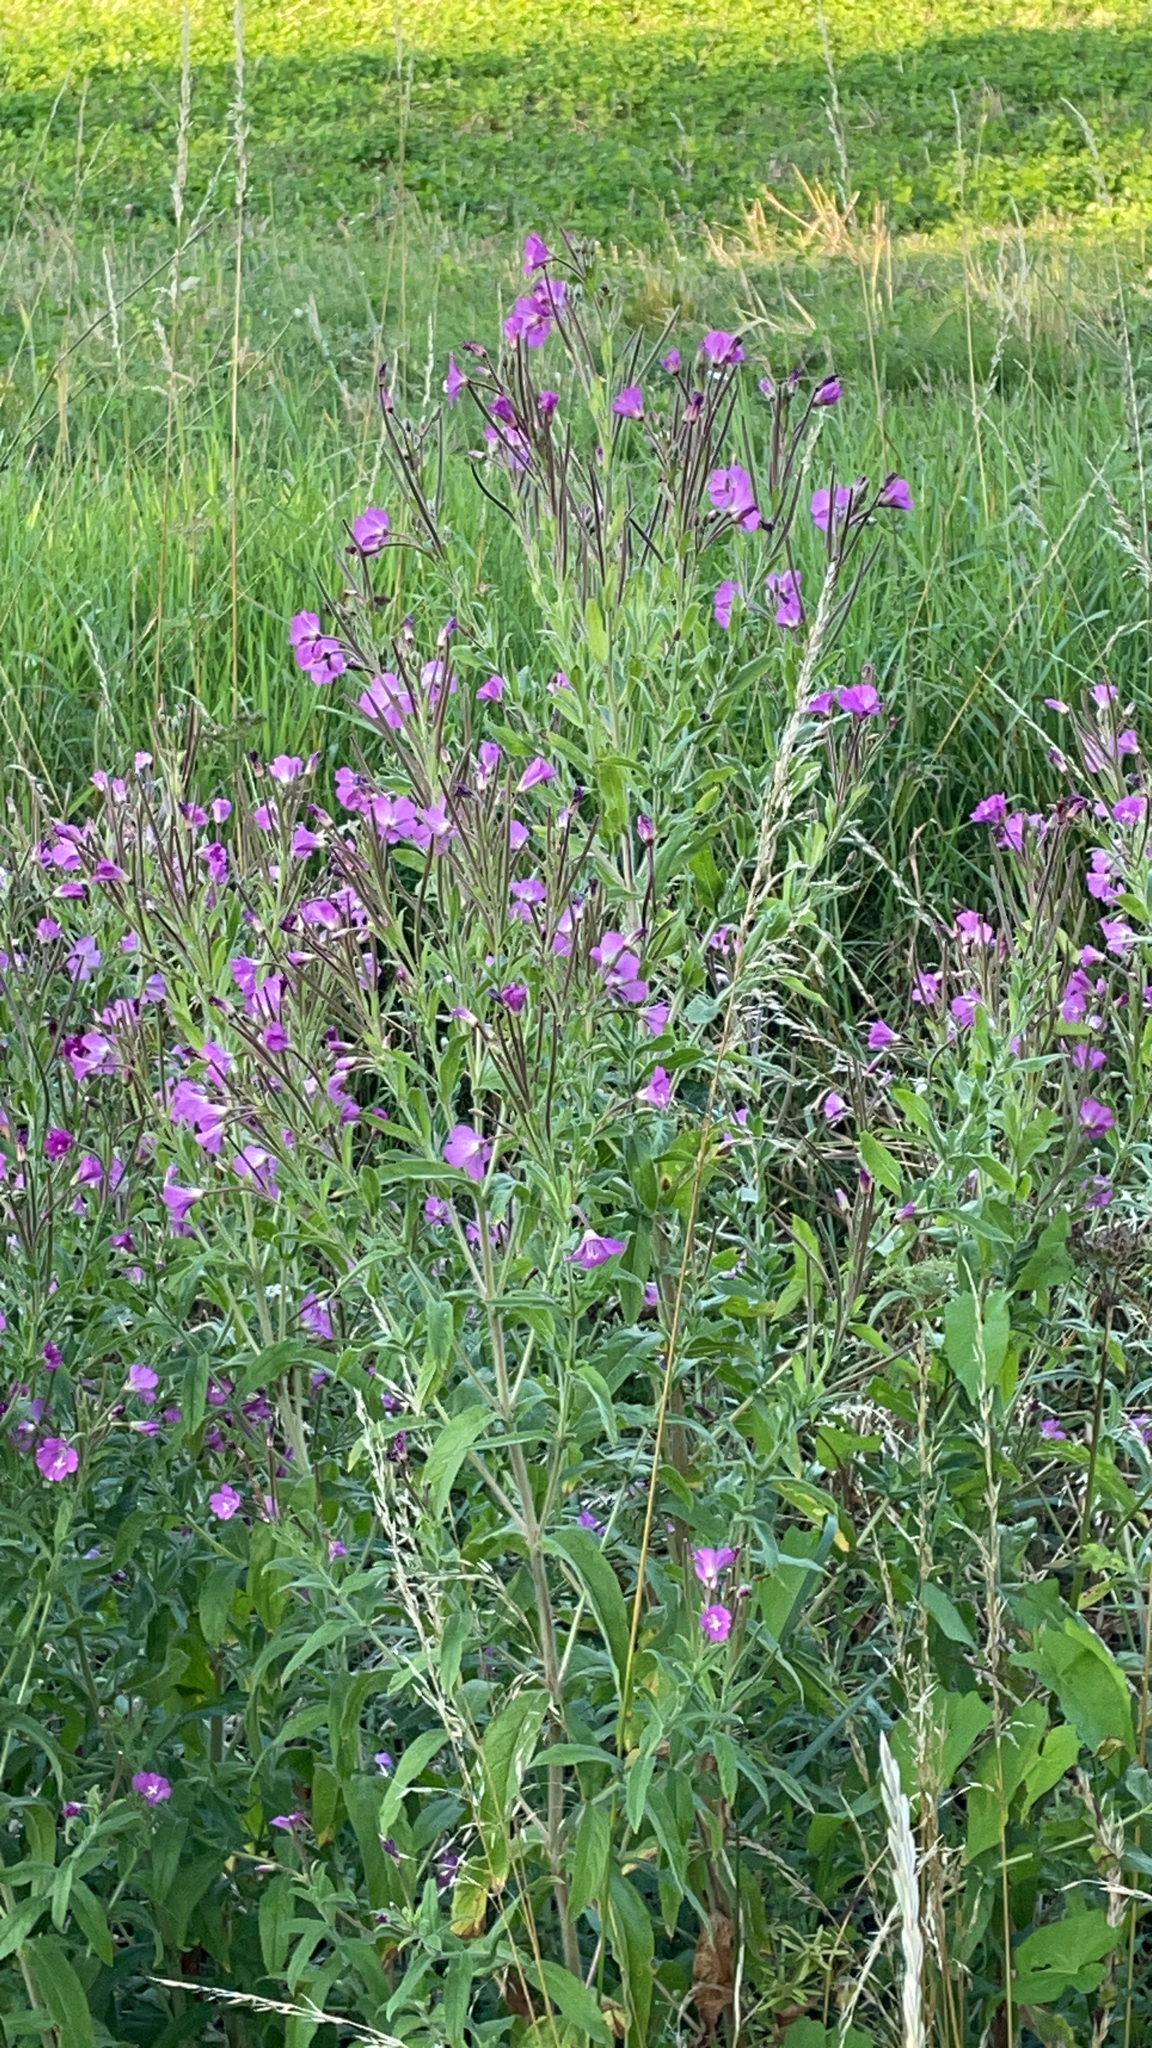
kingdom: Plantae
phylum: Tracheophyta
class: Magnoliopsida
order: Myrtales
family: Onagraceae
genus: Epilobium
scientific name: Epilobium hirsutum
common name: Great willowherb
